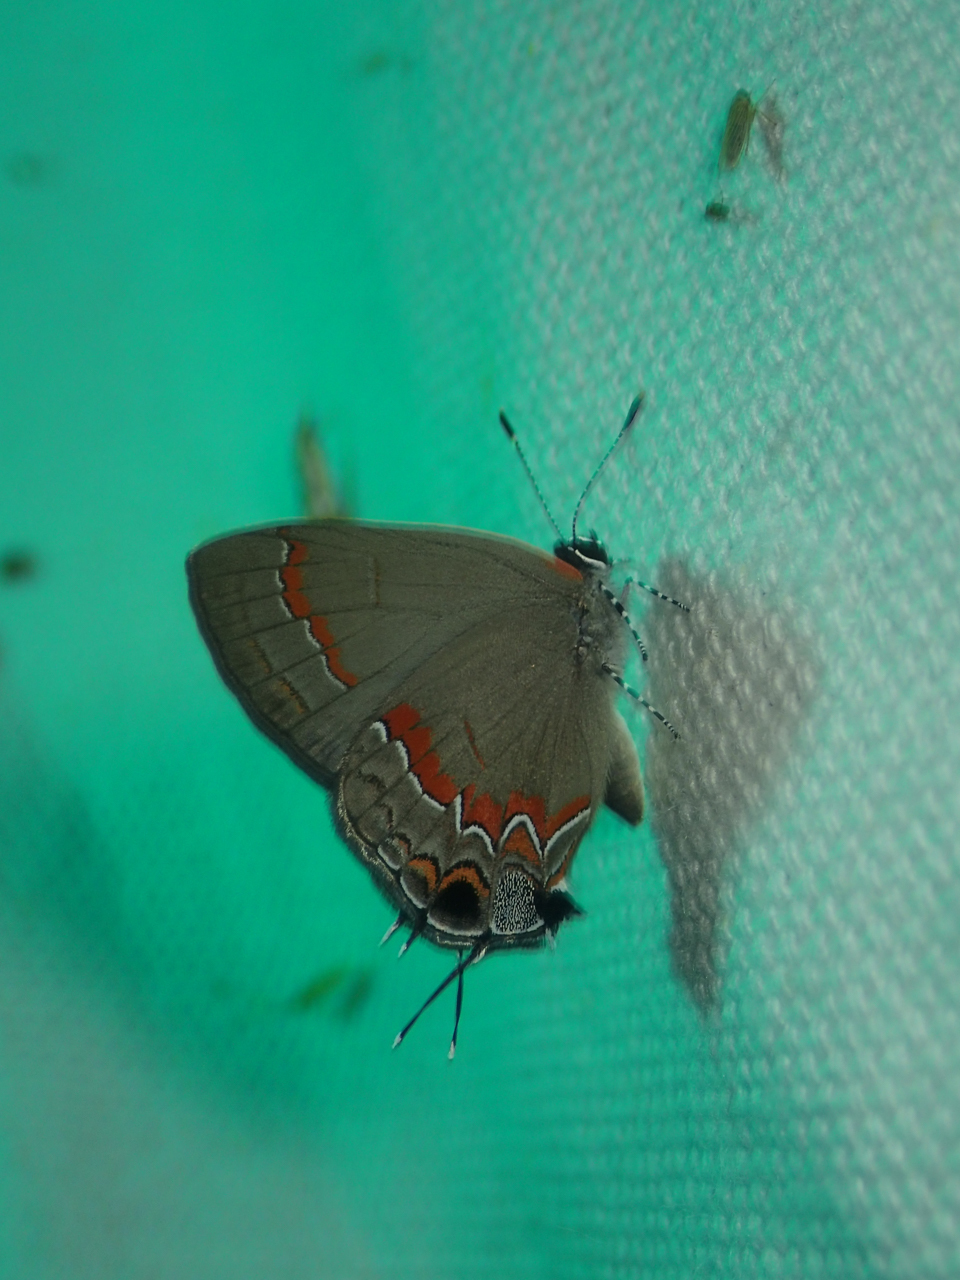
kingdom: Animalia
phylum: Arthropoda
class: Insecta
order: Lepidoptera
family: Lycaenidae
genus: Calycopis
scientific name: Calycopis cecrops
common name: Red-banded hairstreak
